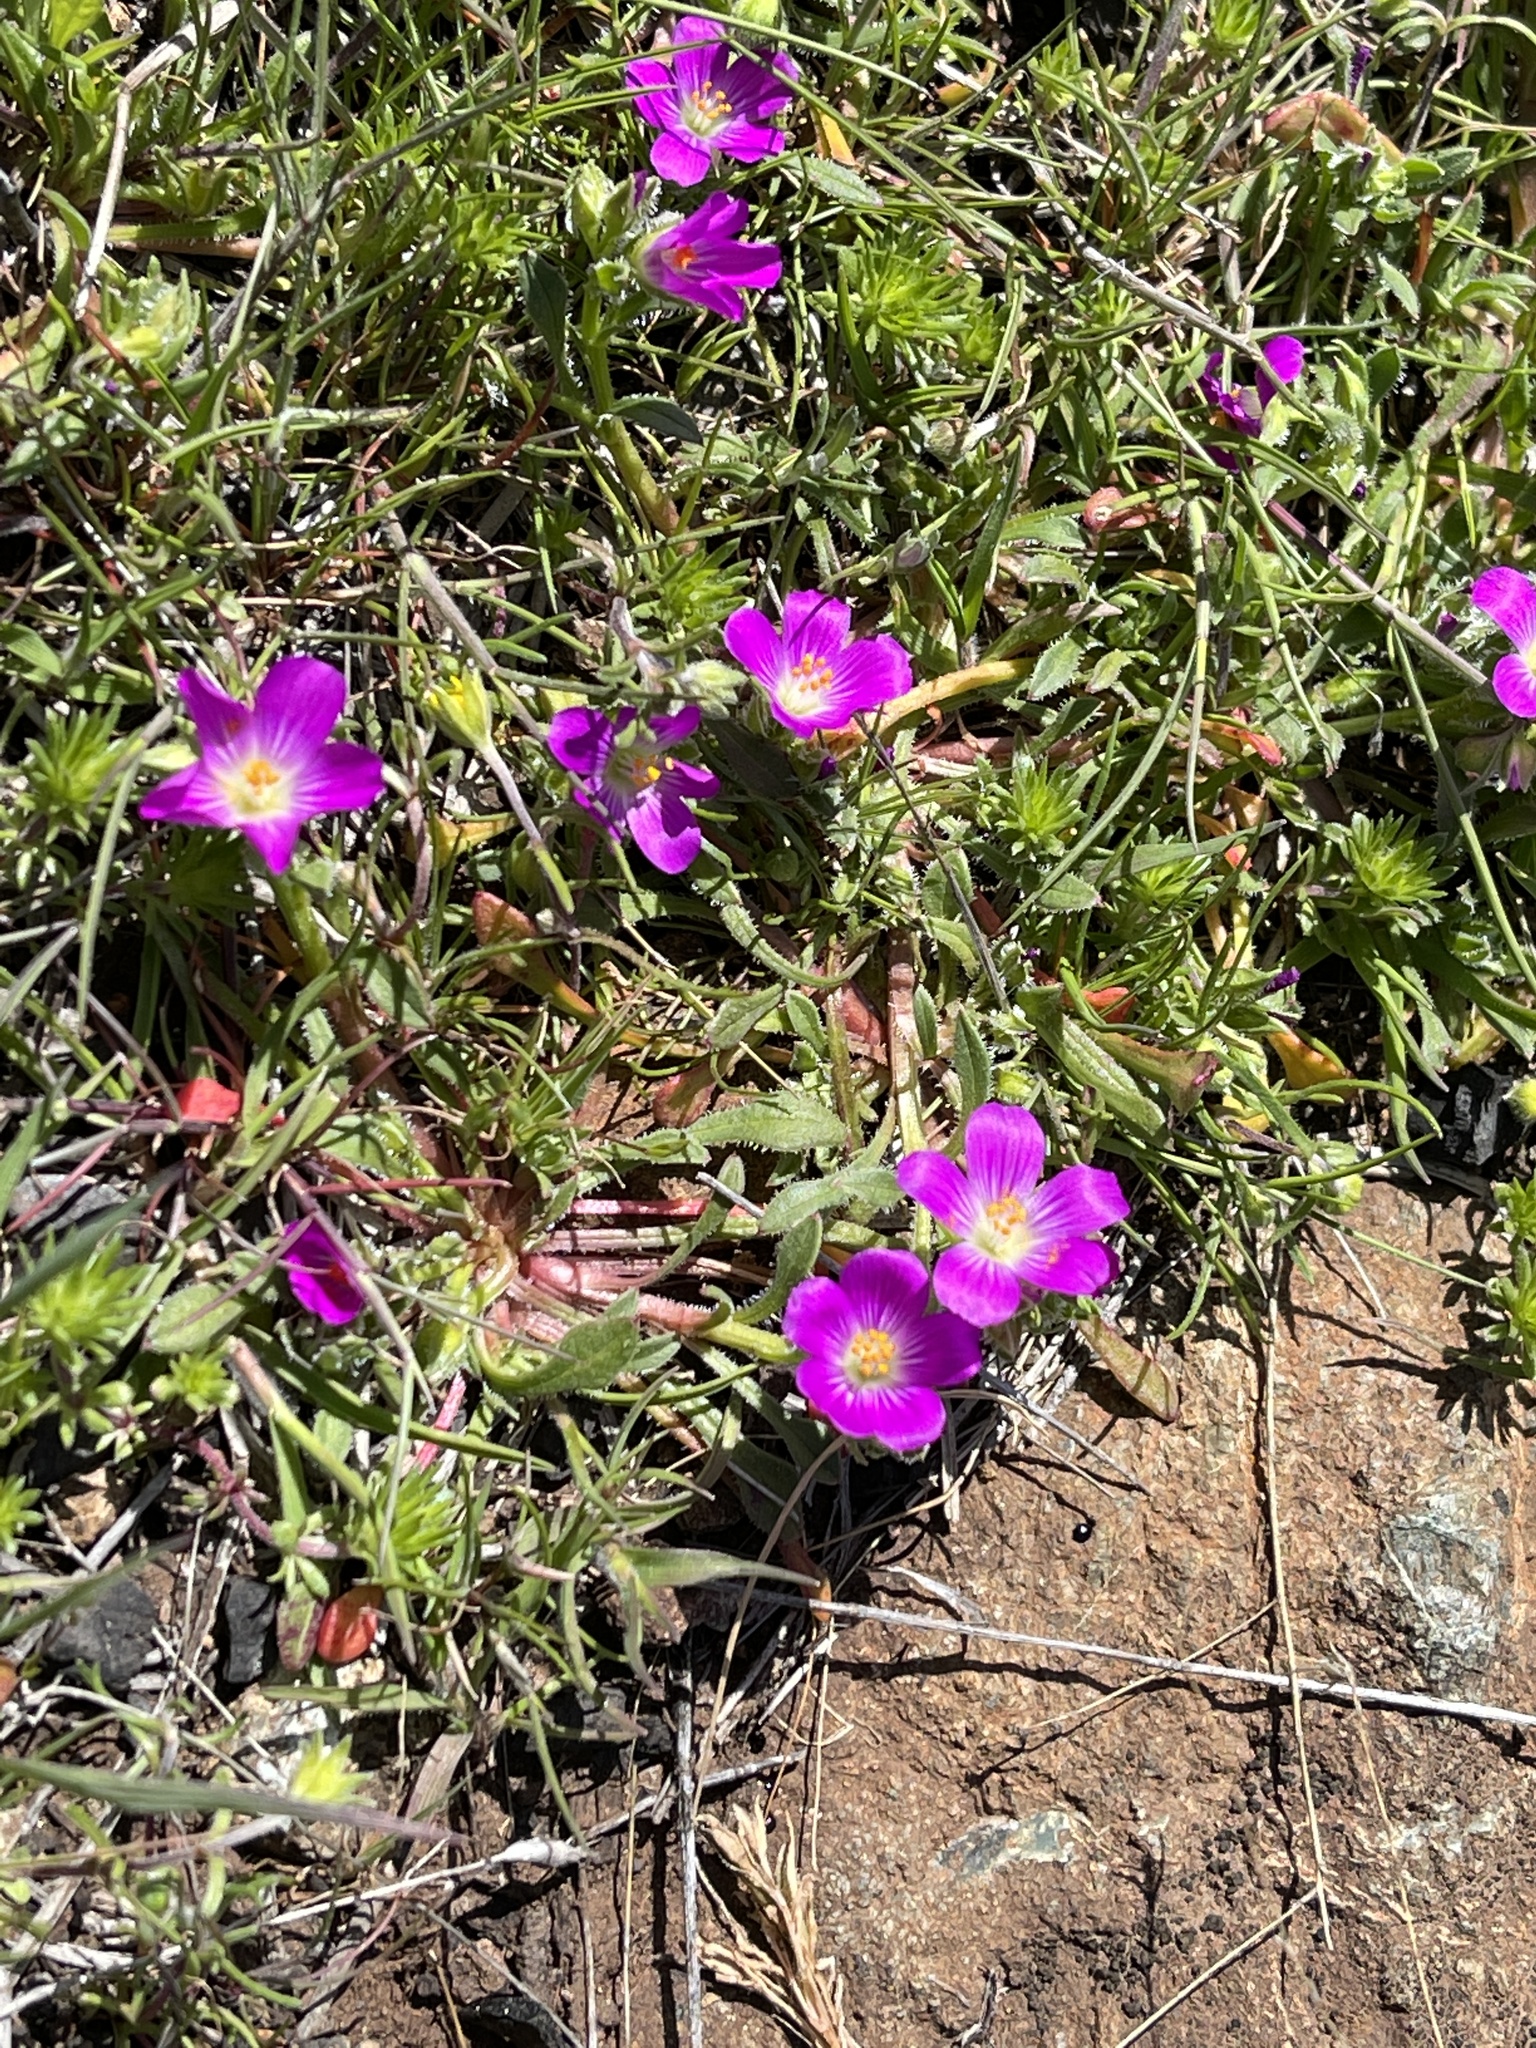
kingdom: Plantae
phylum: Tracheophyta
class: Magnoliopsida
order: Caryophyllales
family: Montiaceae
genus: Calandrinia
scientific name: Calandrinia menziesii
